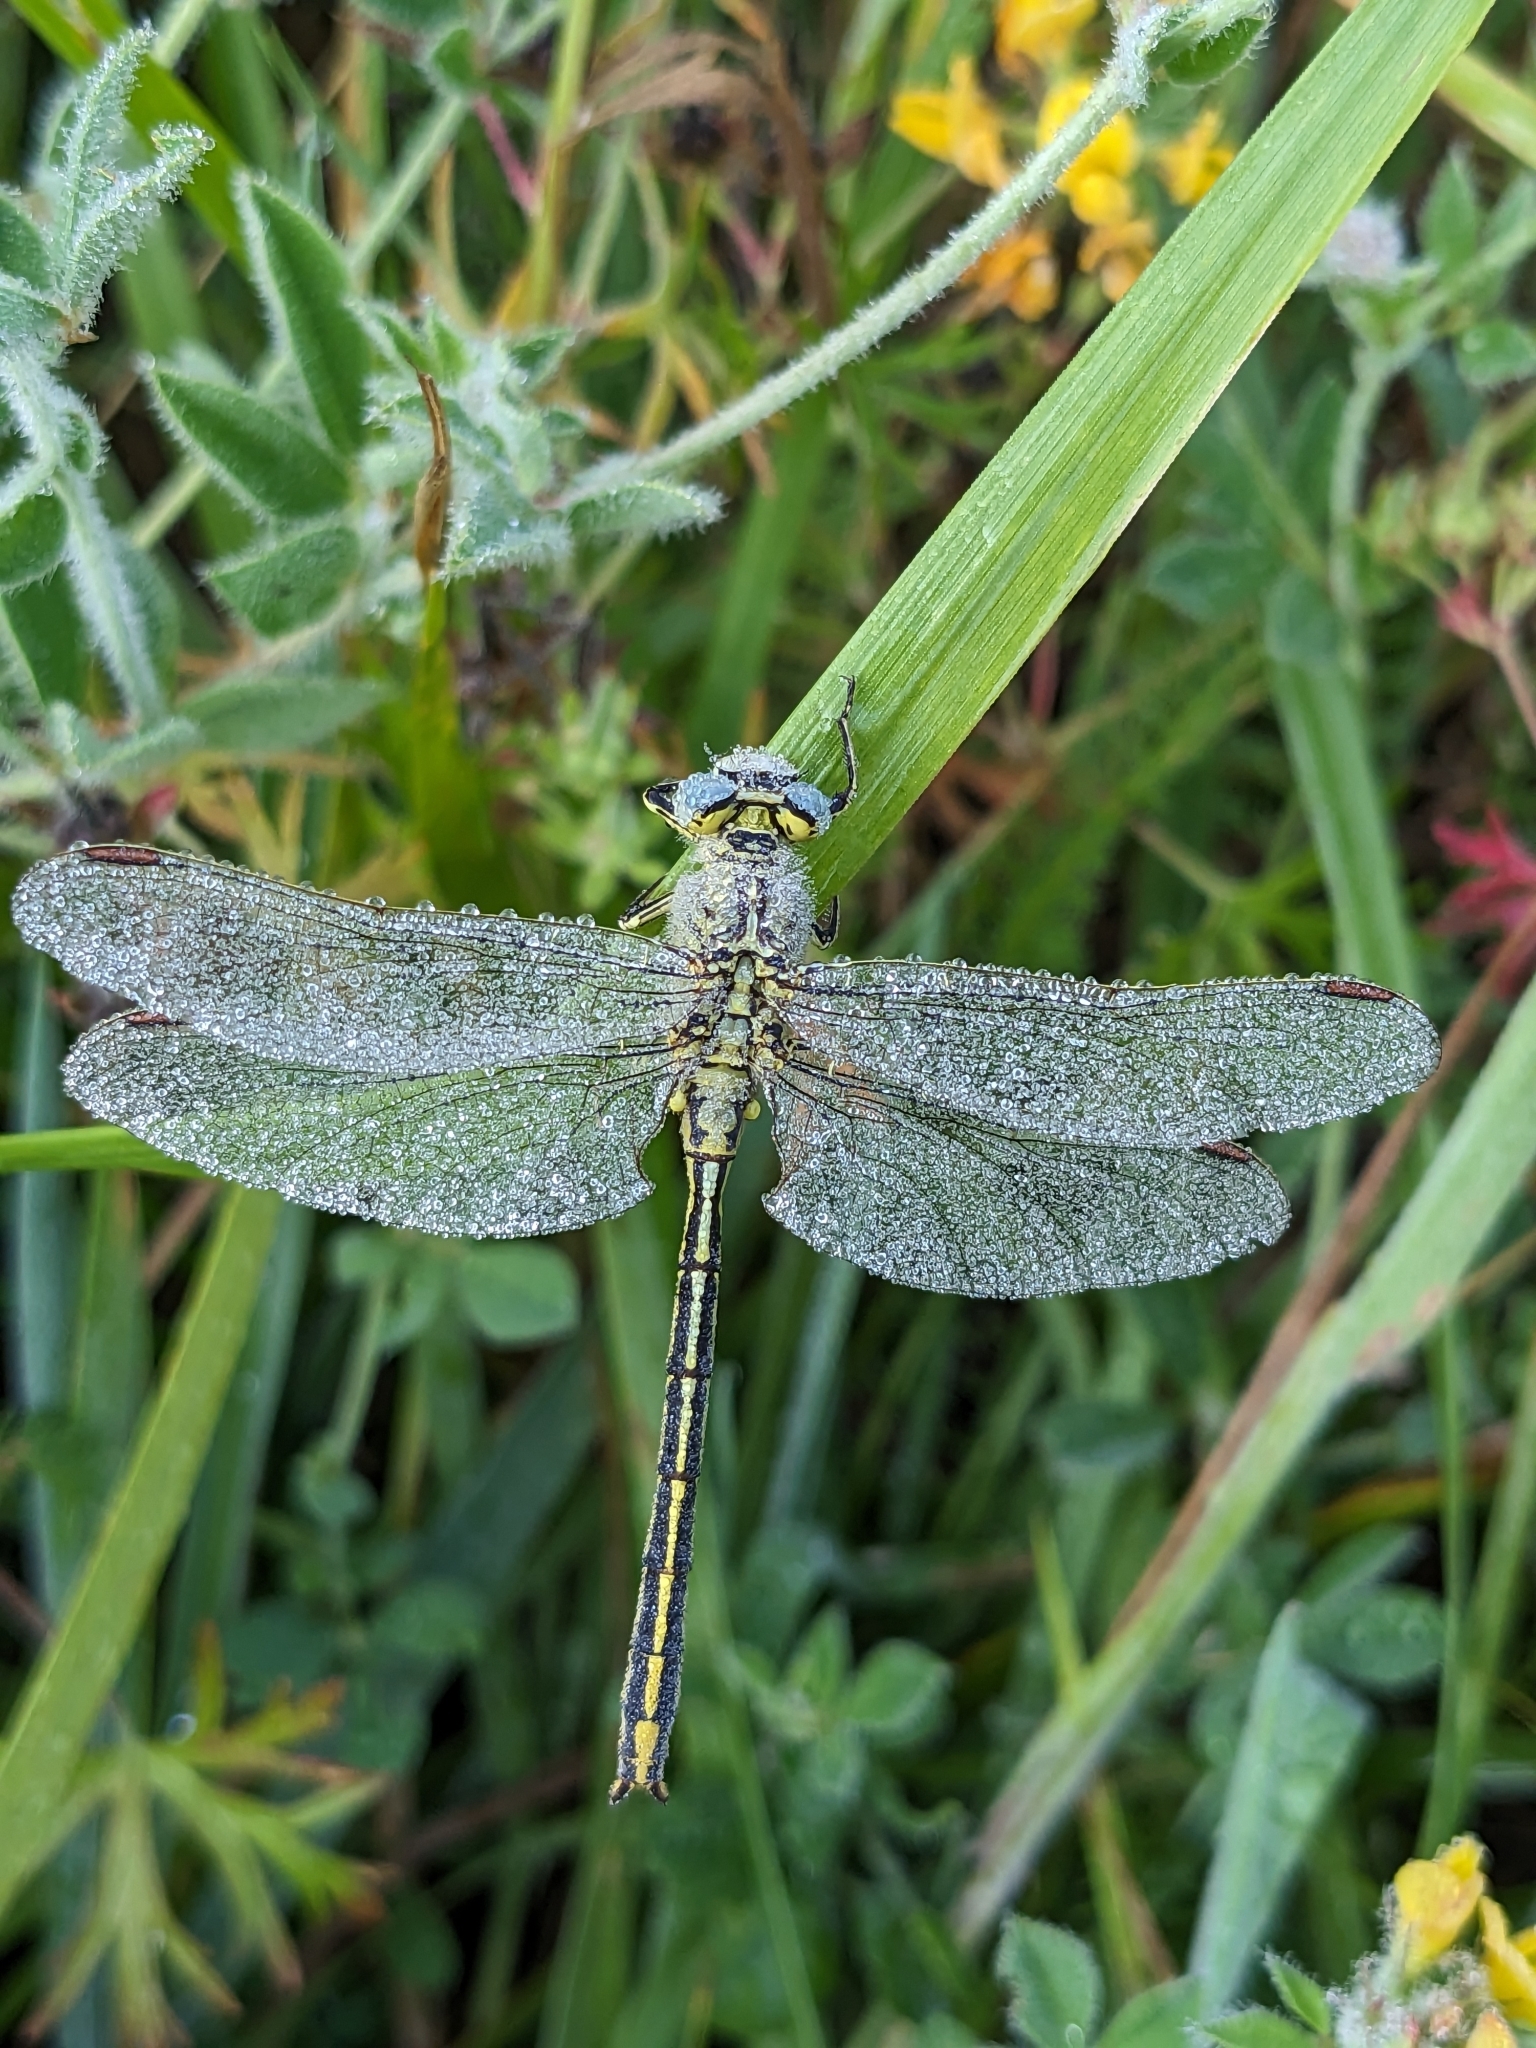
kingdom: Animalia
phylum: Arthropoda
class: Insecta
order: Odonata
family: Gomphidae
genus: Gomphus
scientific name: Gomphus pulchellus
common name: Western clubtail
